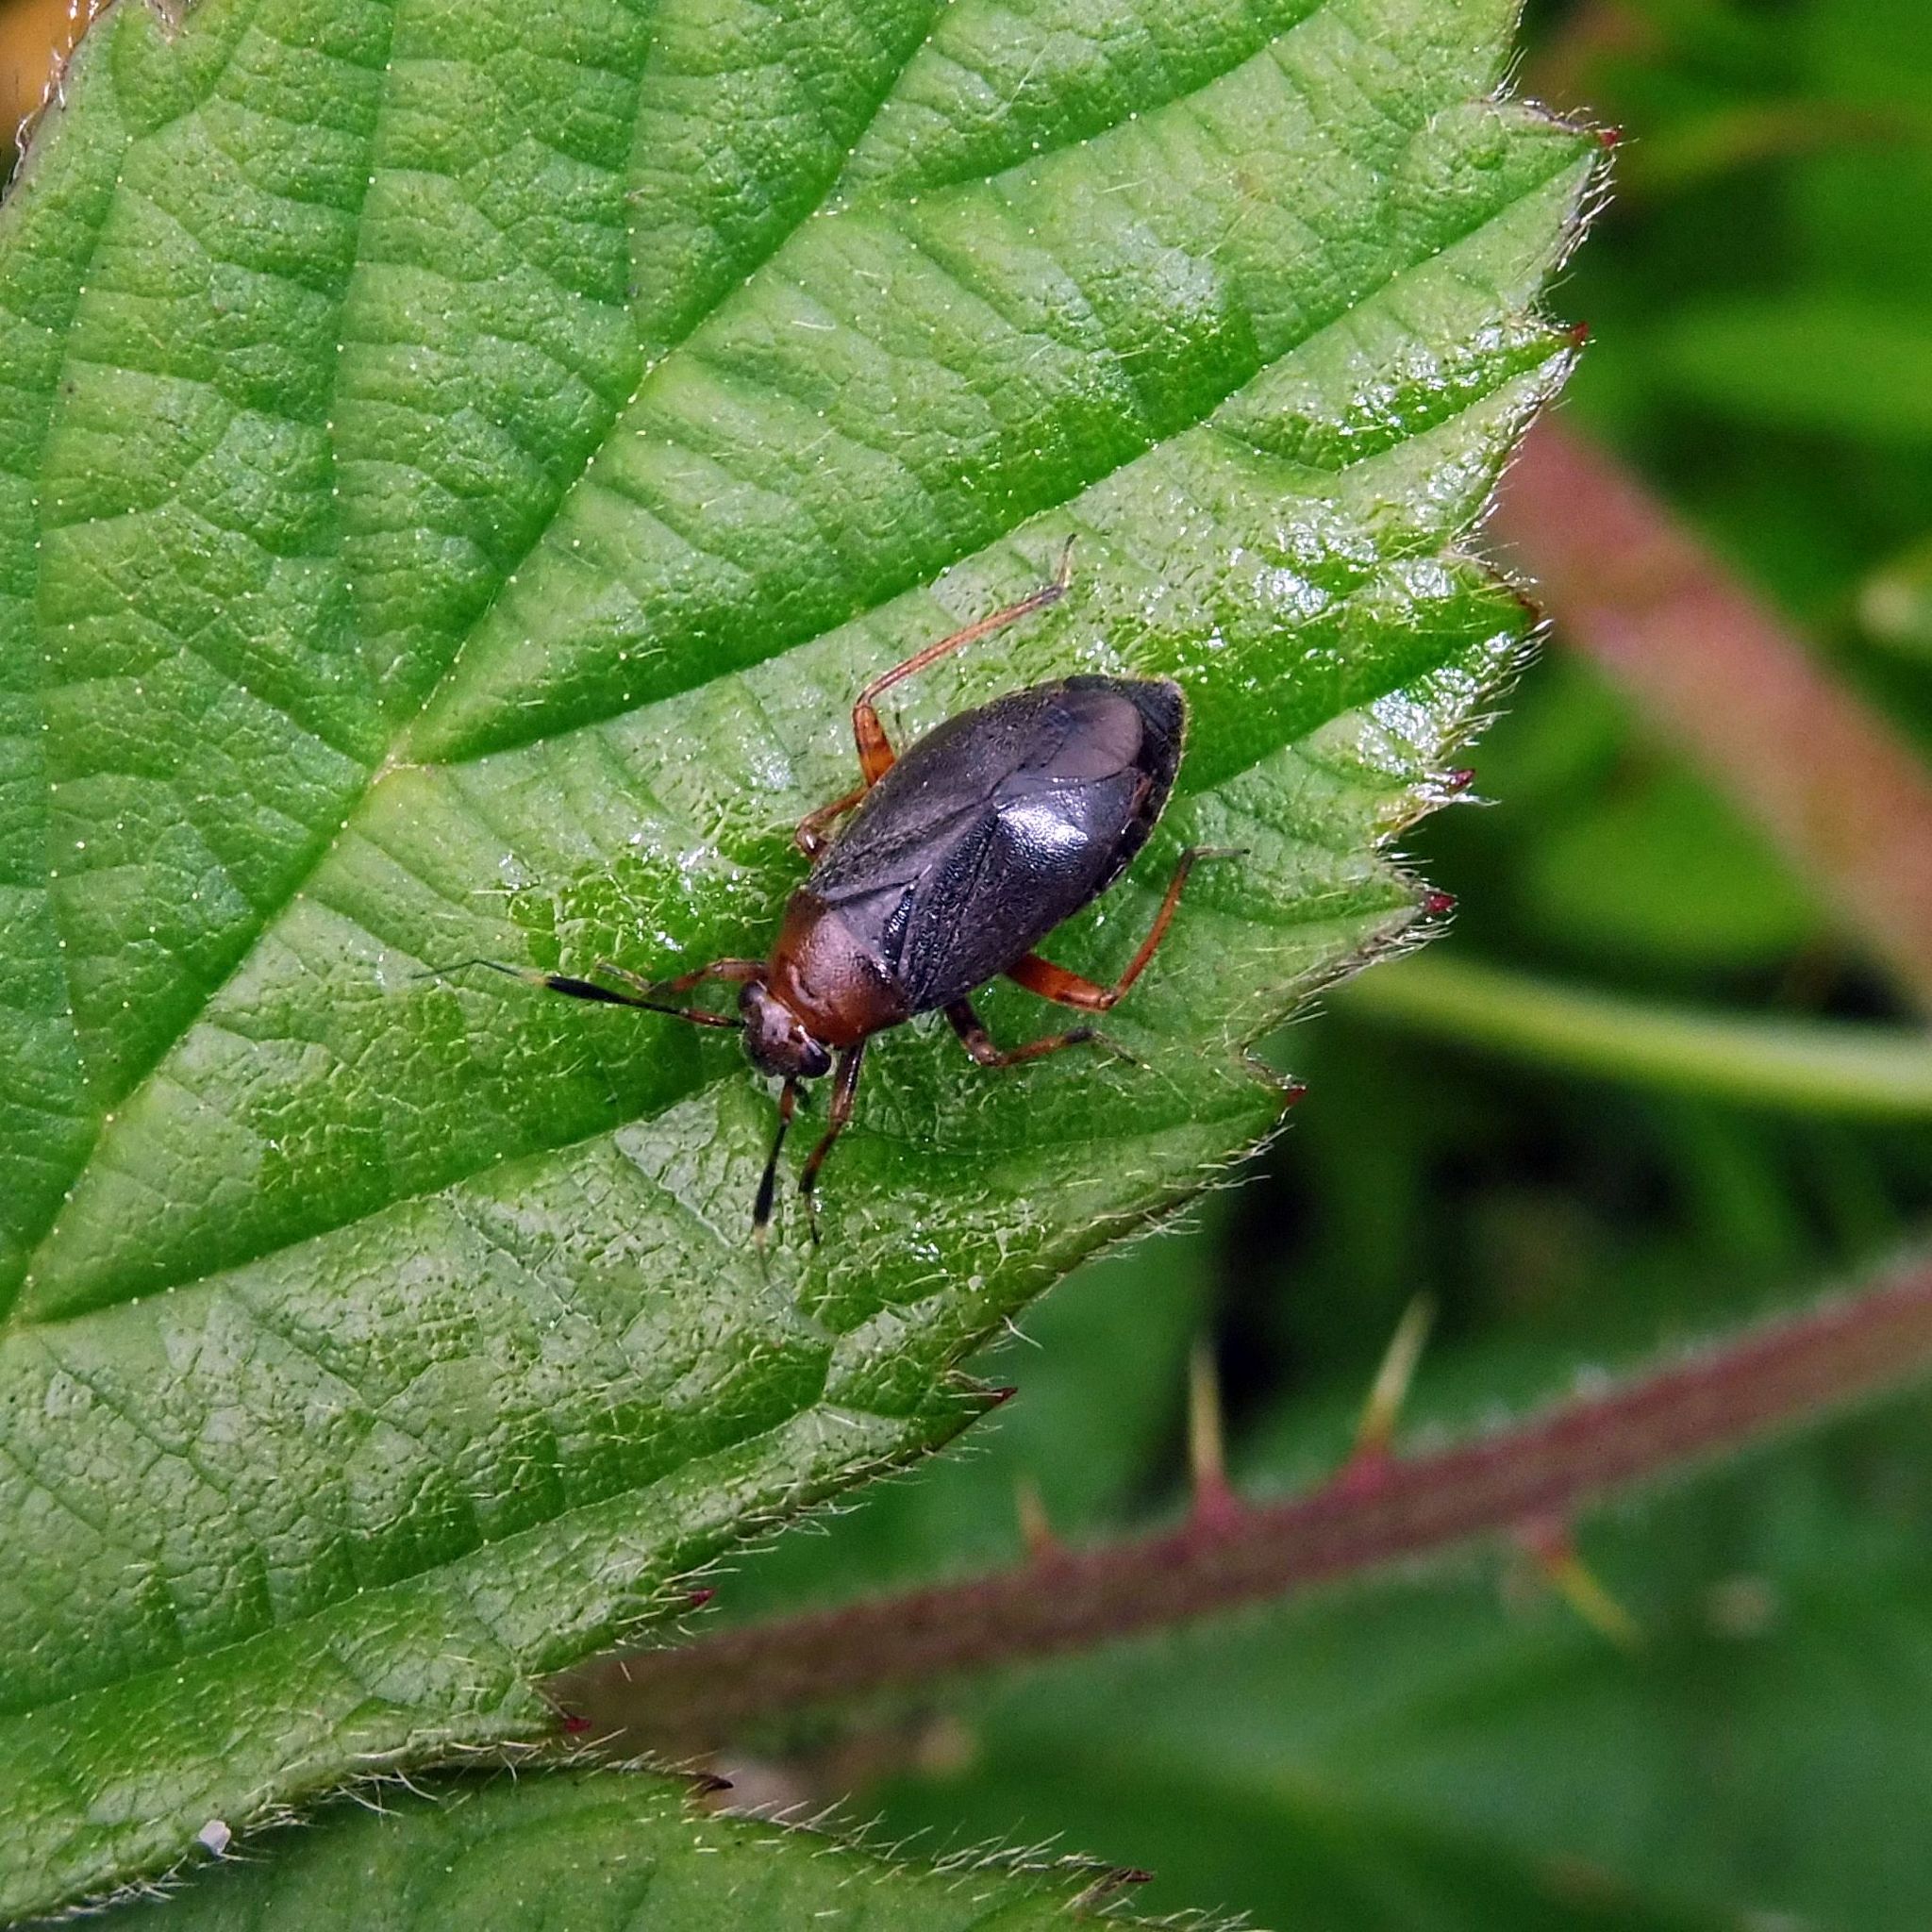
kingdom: Animalia
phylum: Arthropoda
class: Insecta
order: Hemiptera
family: Miridae
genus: Capsus
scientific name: Capsus ater
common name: Black plant bug
